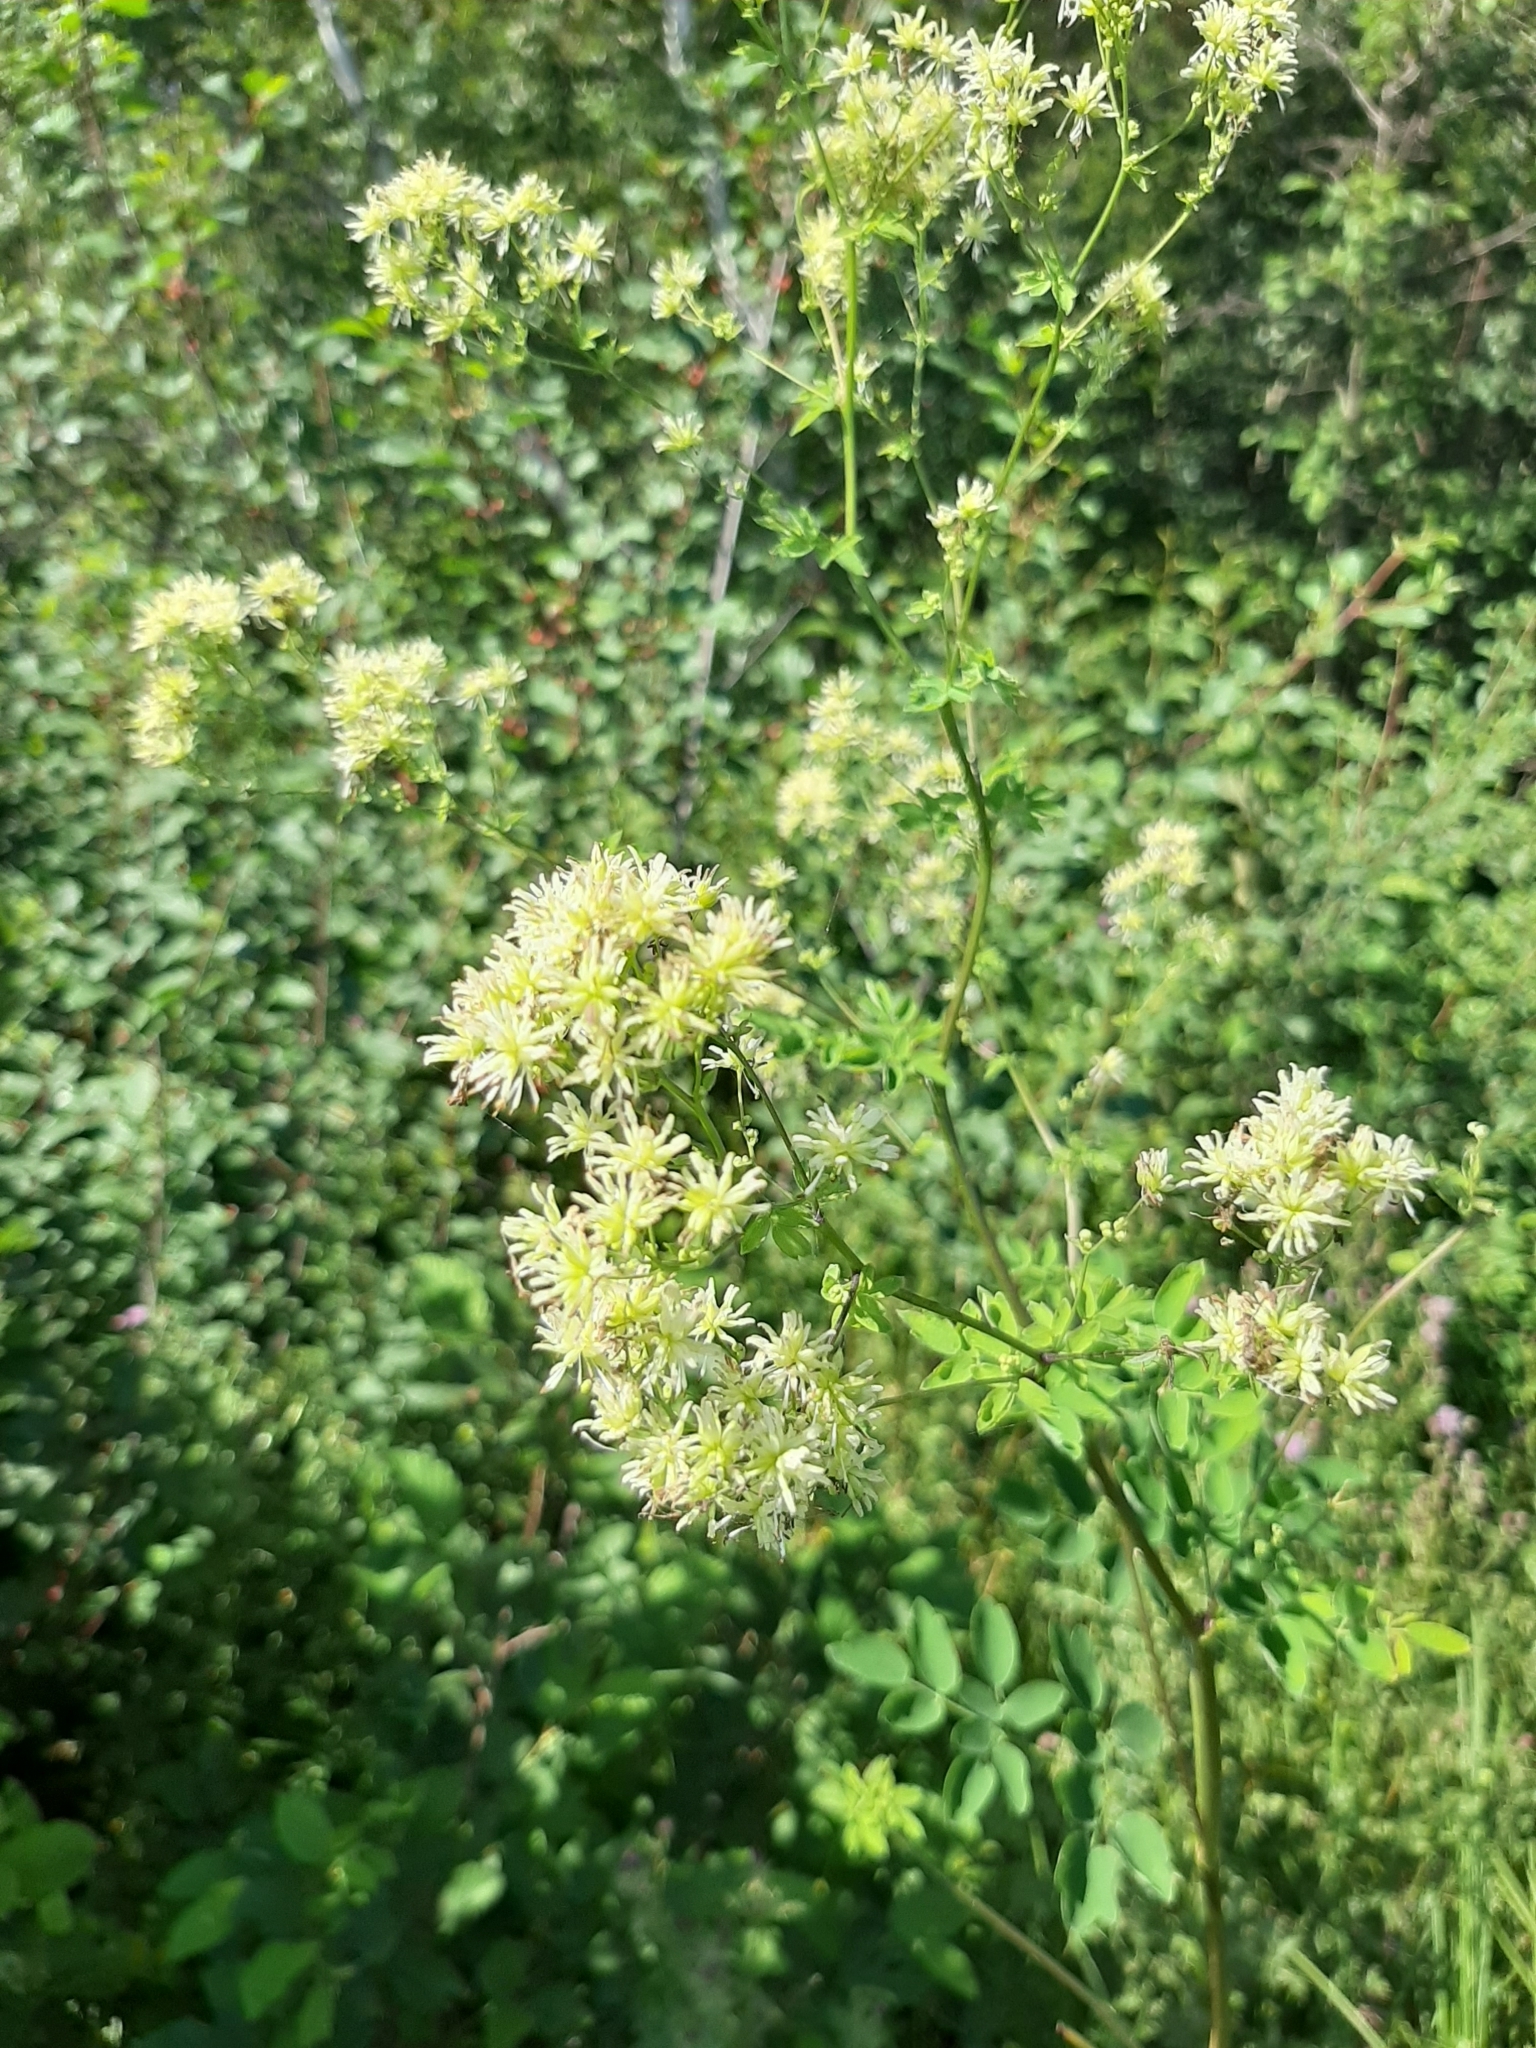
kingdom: Plantae
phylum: Tracheophyta
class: Magnoliopsida
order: Ranunculales
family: Ranunculaceae
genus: Thalictrum
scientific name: Thalictrum pubescens
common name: King-of-the-meadow
